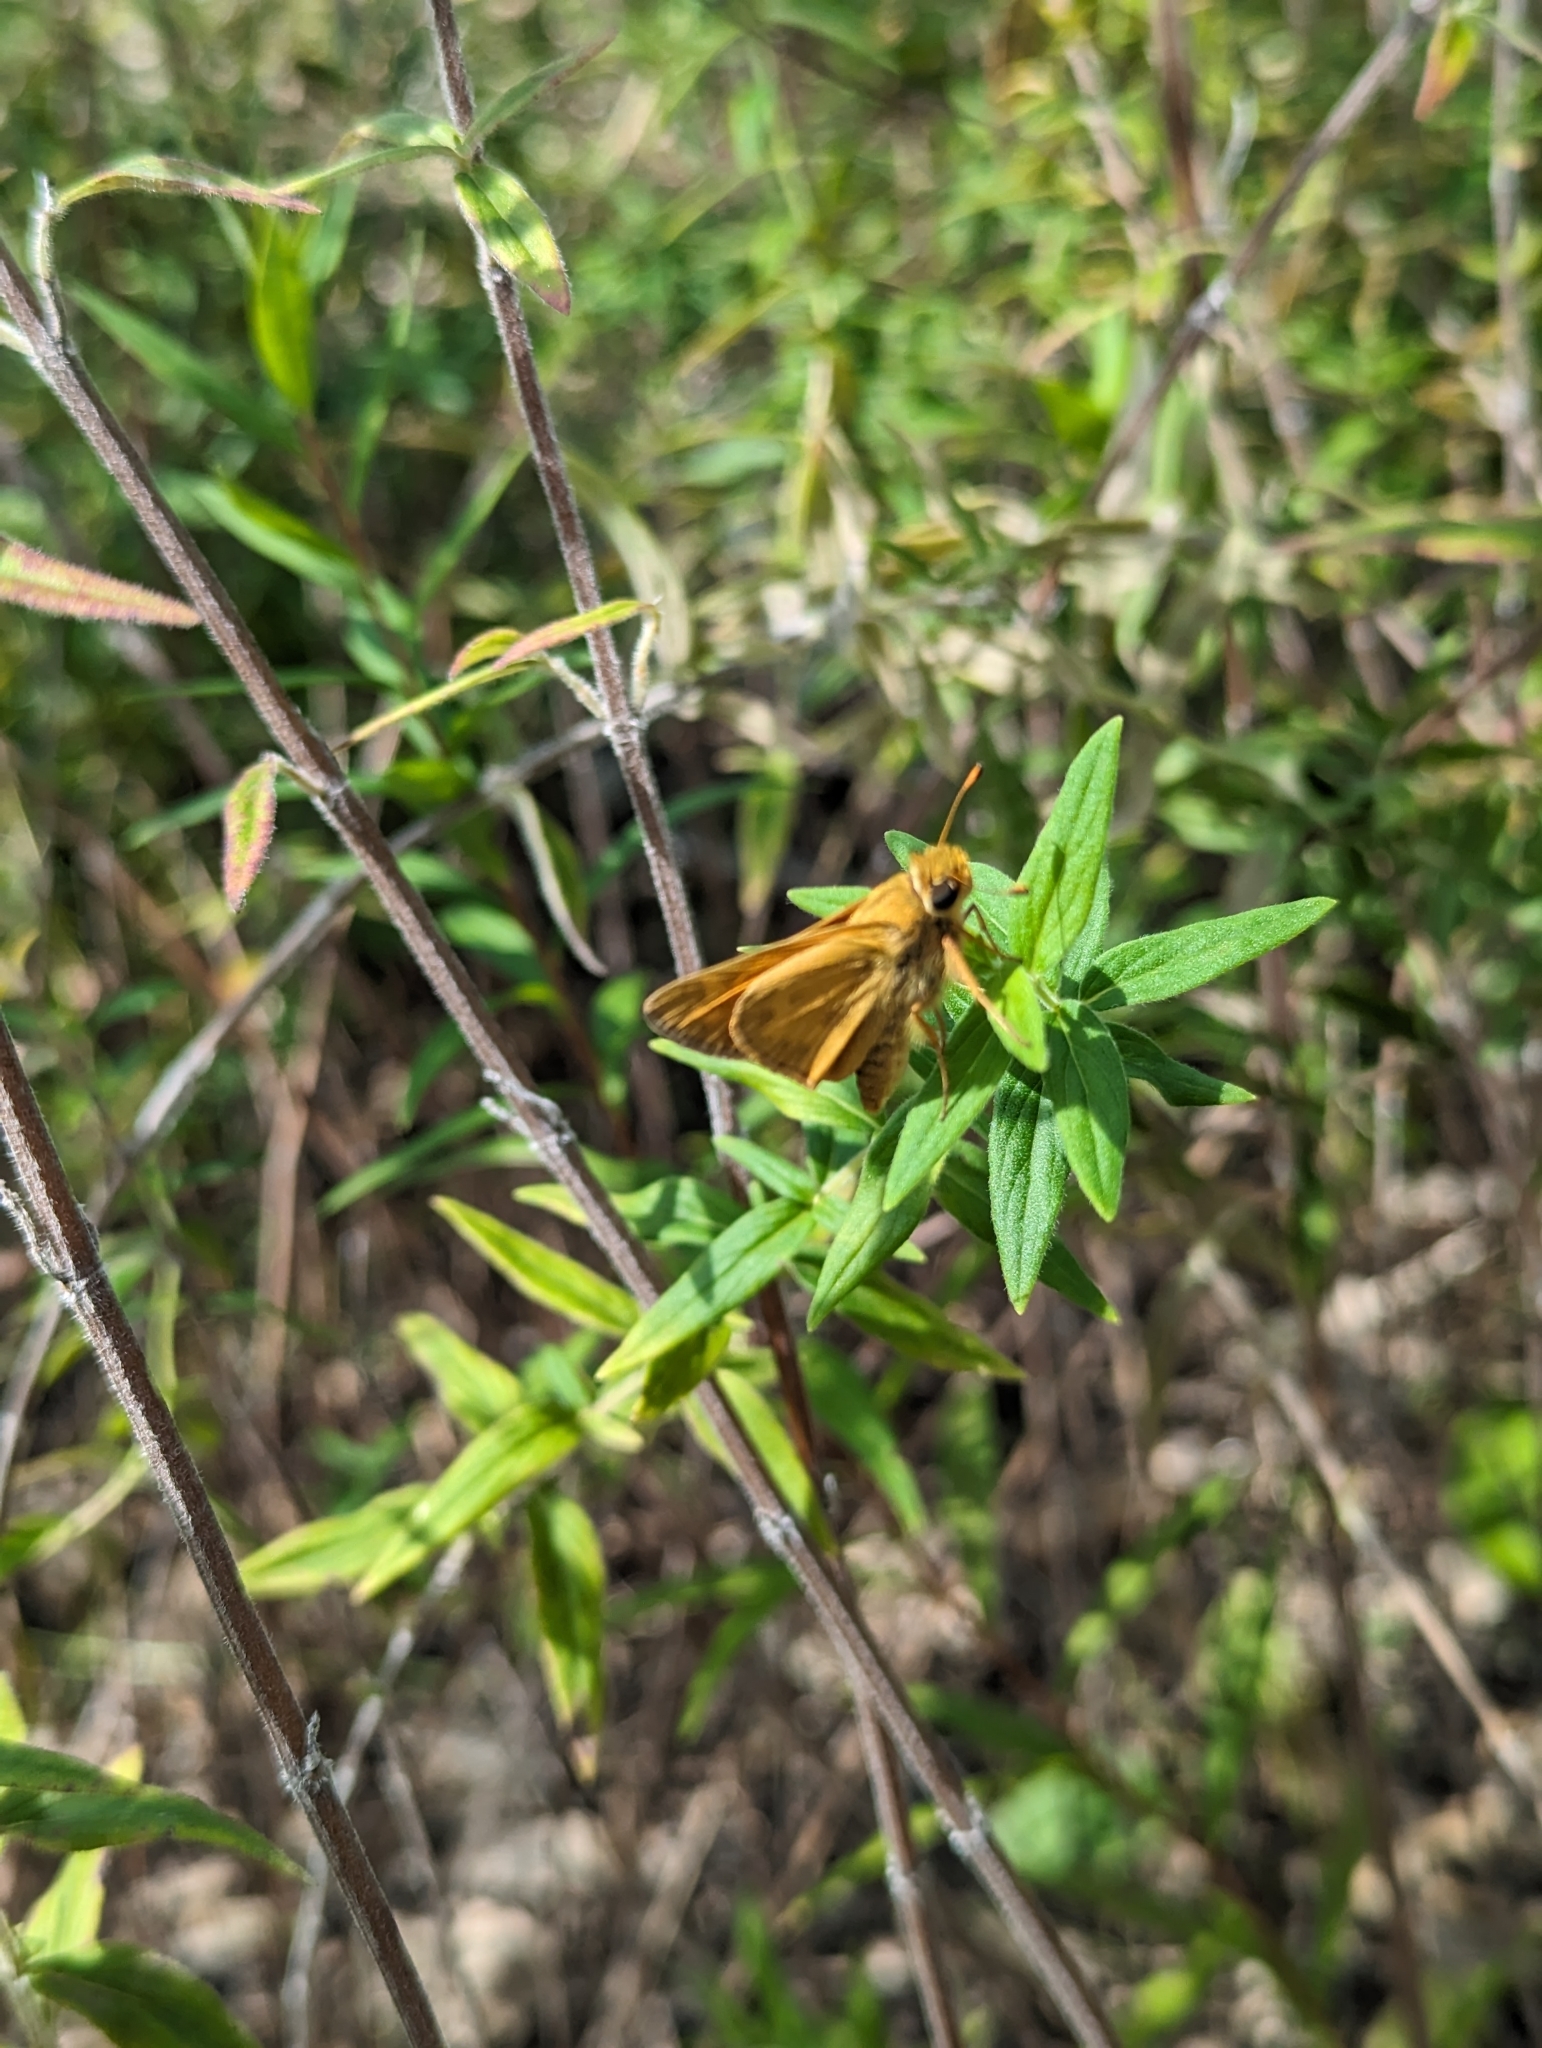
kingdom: Animalia
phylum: Arthropoda
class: Insecta
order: Lepidoptera
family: Hesperiidae
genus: Atalopedes
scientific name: Atalopedes
